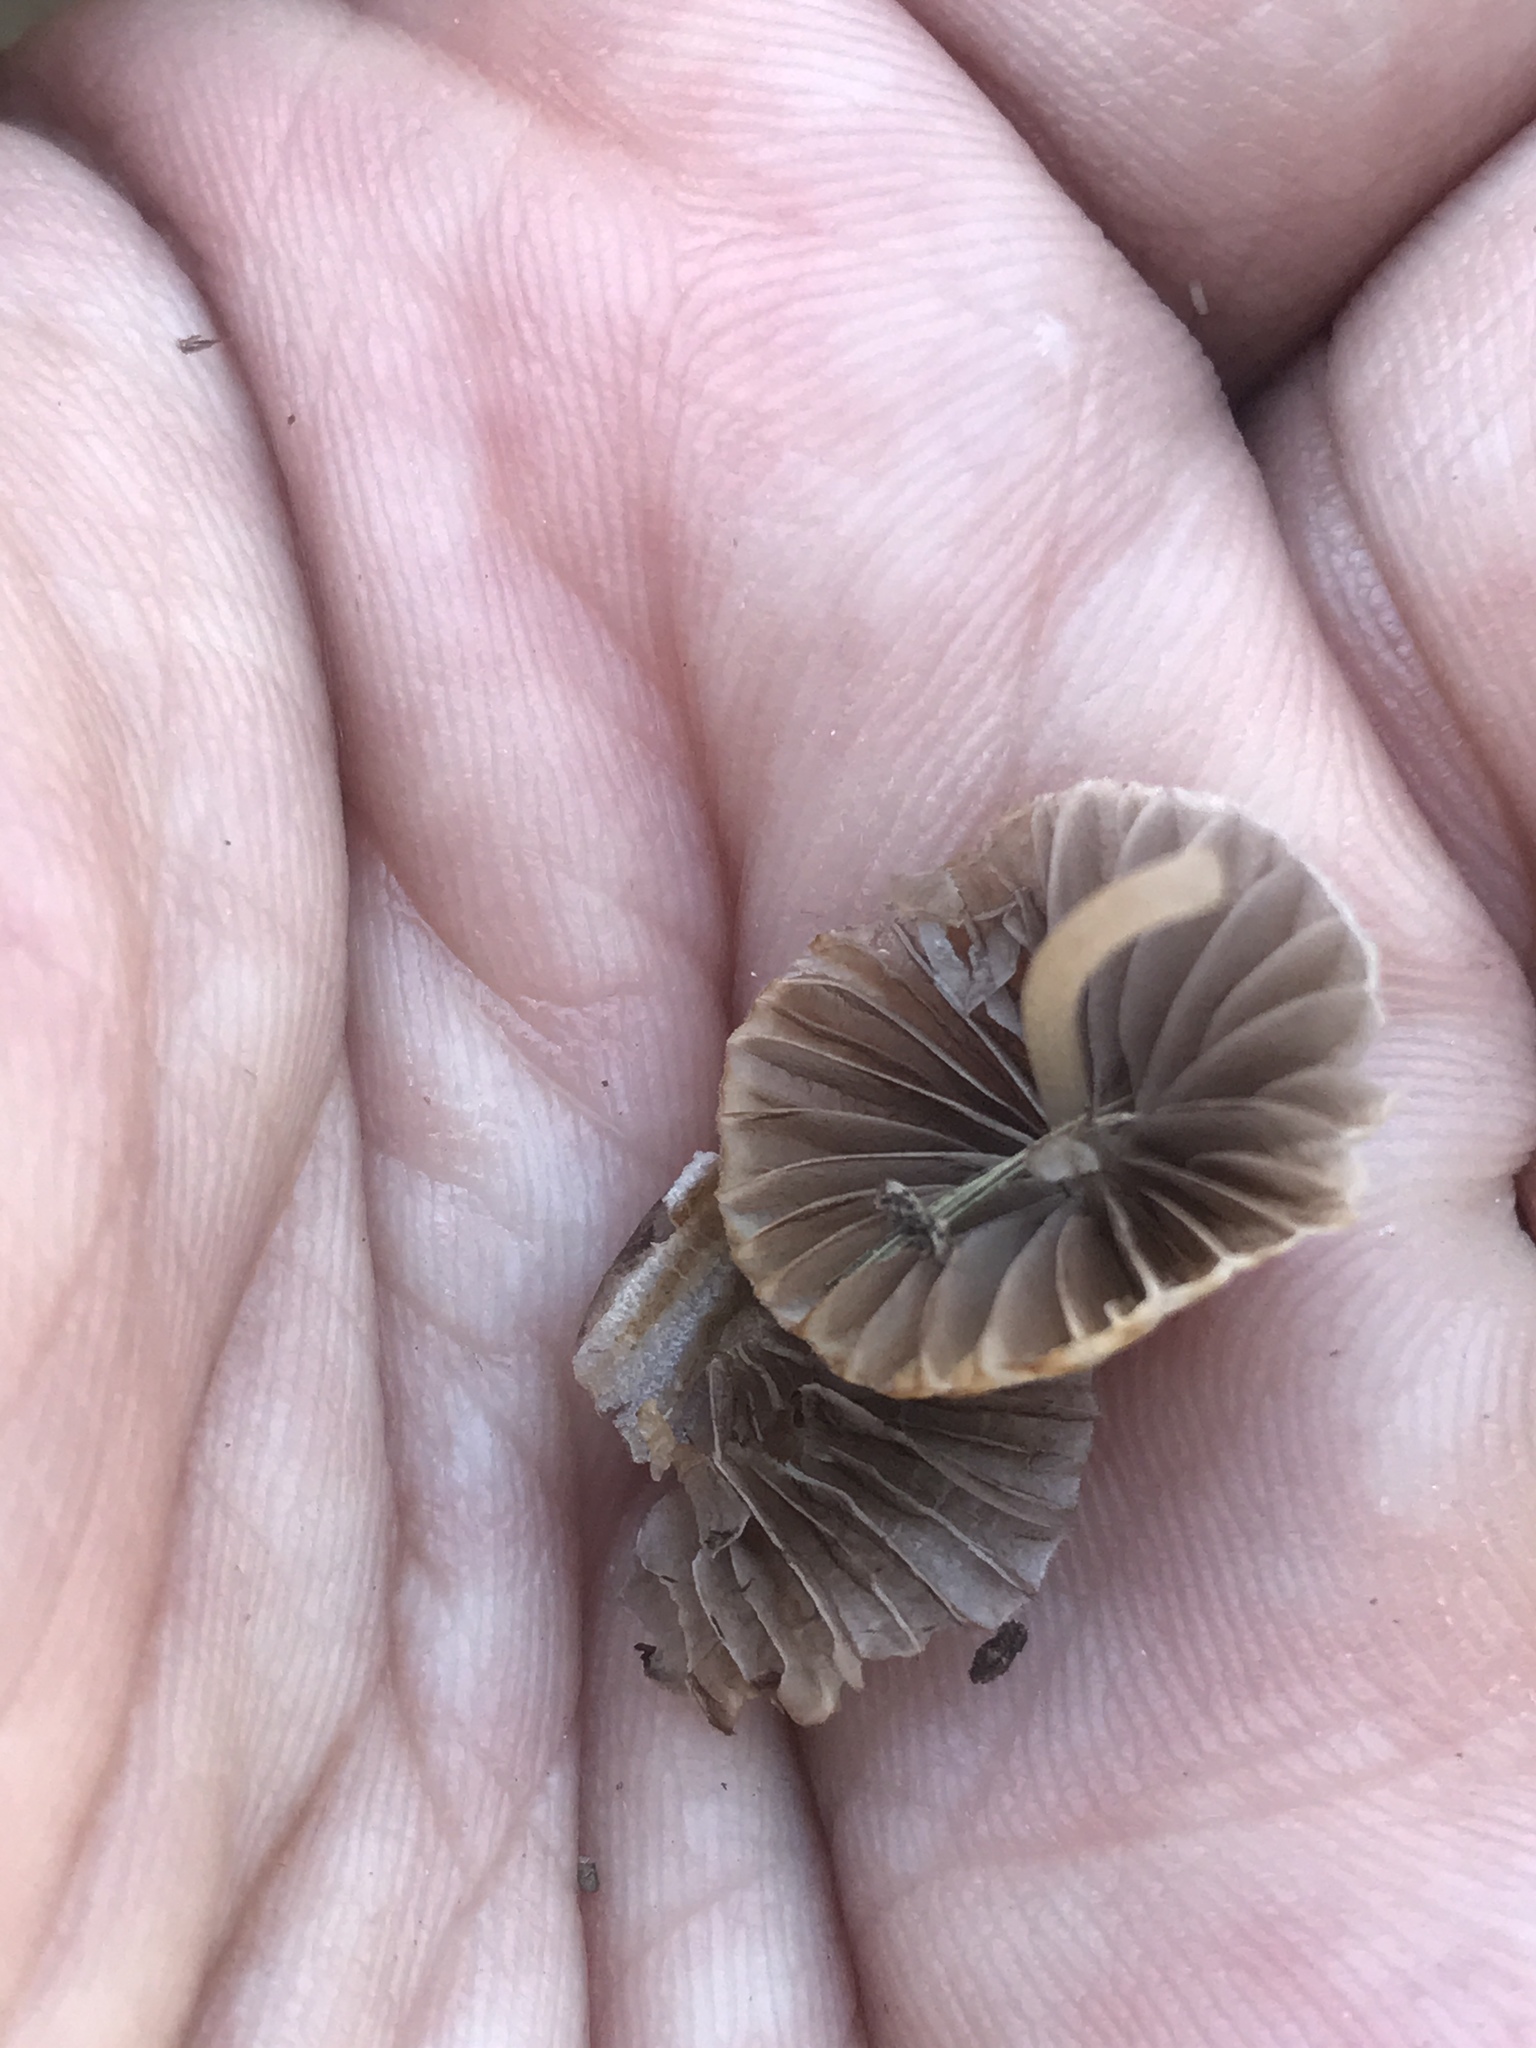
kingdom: Fungi
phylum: Basidiomycota
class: Agaricomycetes
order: Agaricales
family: Psathyrellaceae
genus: Coprinellus
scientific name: Coprinellus disseminatus
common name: Fairies' bonnets
